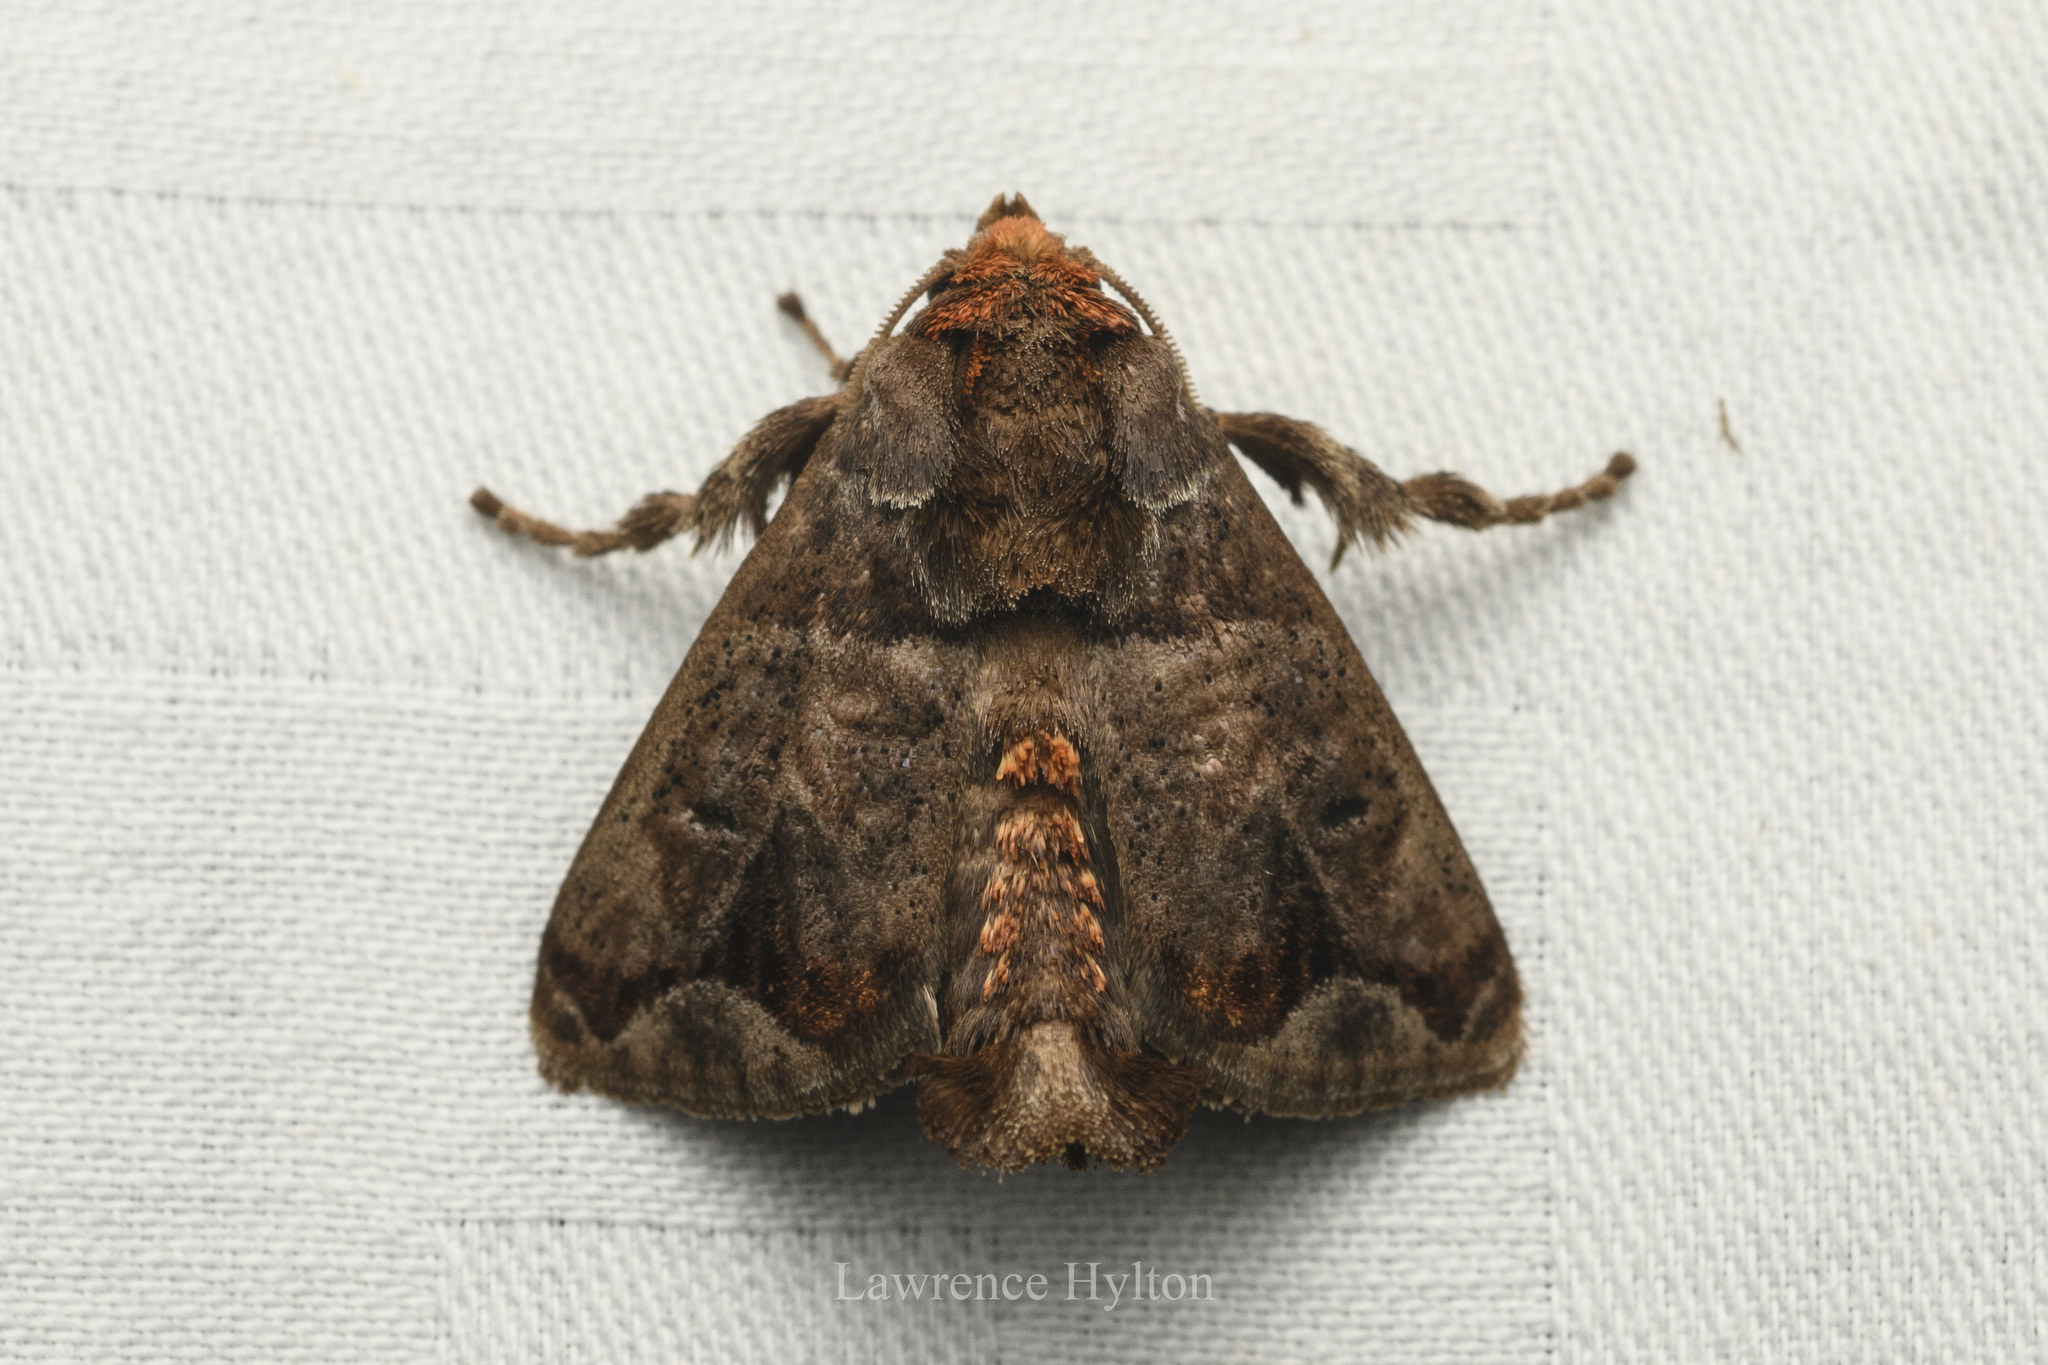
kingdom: Animalia
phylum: Arthropoda
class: Insecta
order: Lepidoptera
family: Limacodidae
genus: Phlossa
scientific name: Phlossa conjuncta
